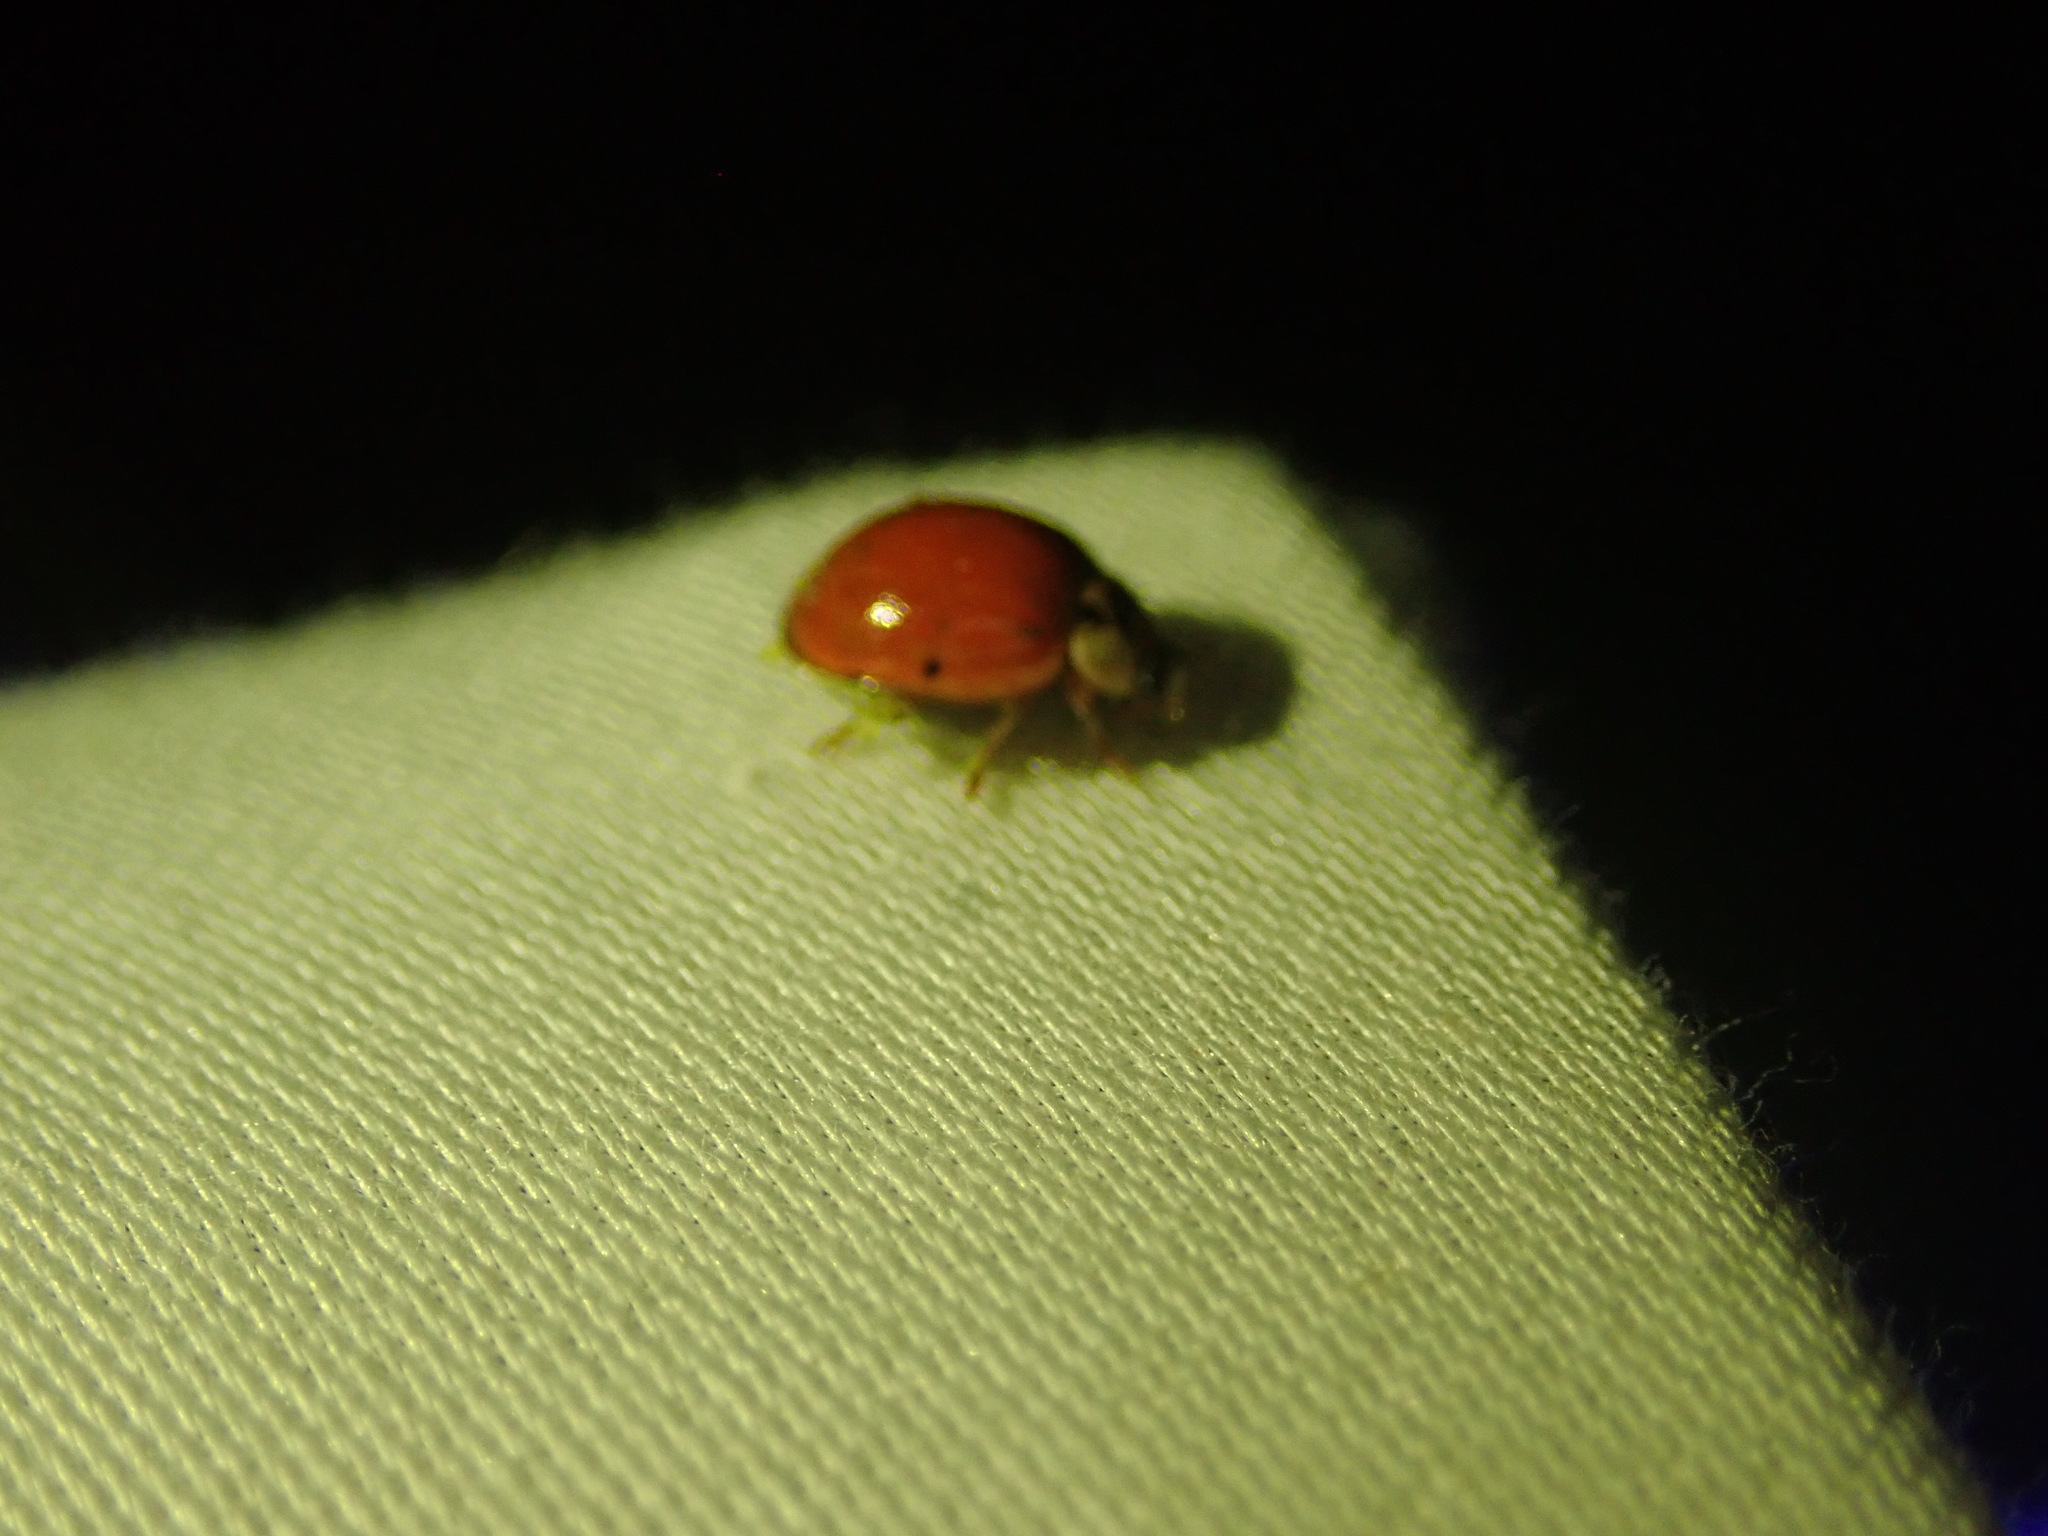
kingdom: Animalia
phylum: Arthropoda
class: Insecta
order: Coleoptera
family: Coccinellidae
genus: Harmonia
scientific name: Harmonia axyridis
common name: Harlequin ladybird
